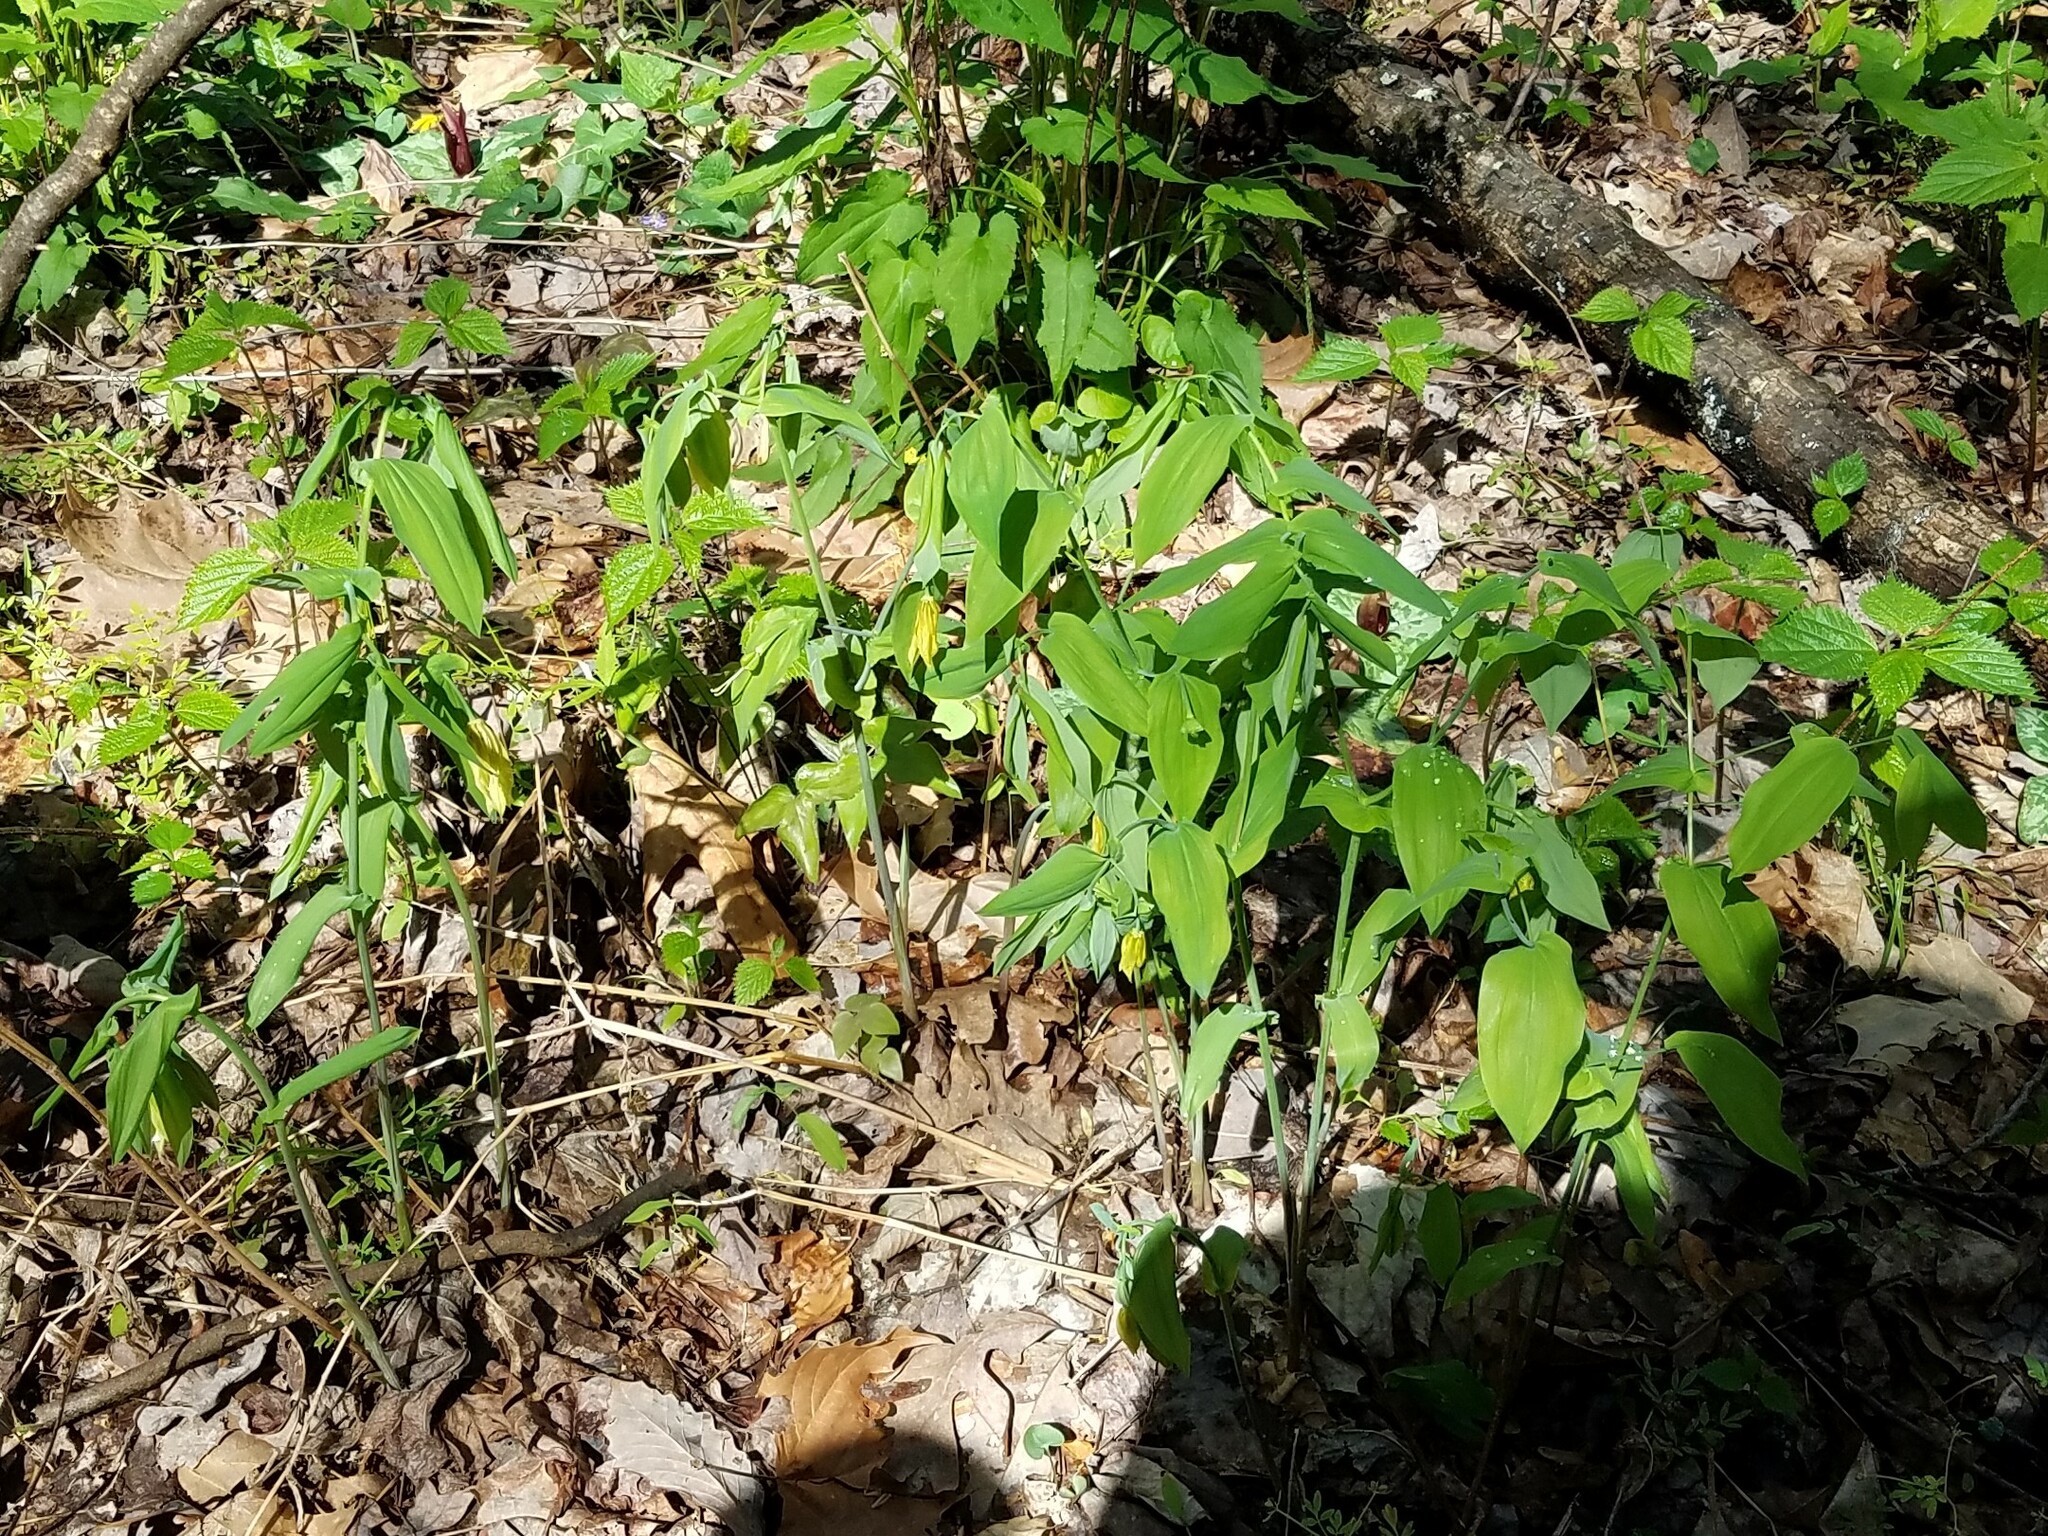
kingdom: Plantae
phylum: Tracheophyta
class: Liliopsida
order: Liliales
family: Colchicaceae
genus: Uvularia
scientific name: Uvularia grandiflora
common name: Bellwort
